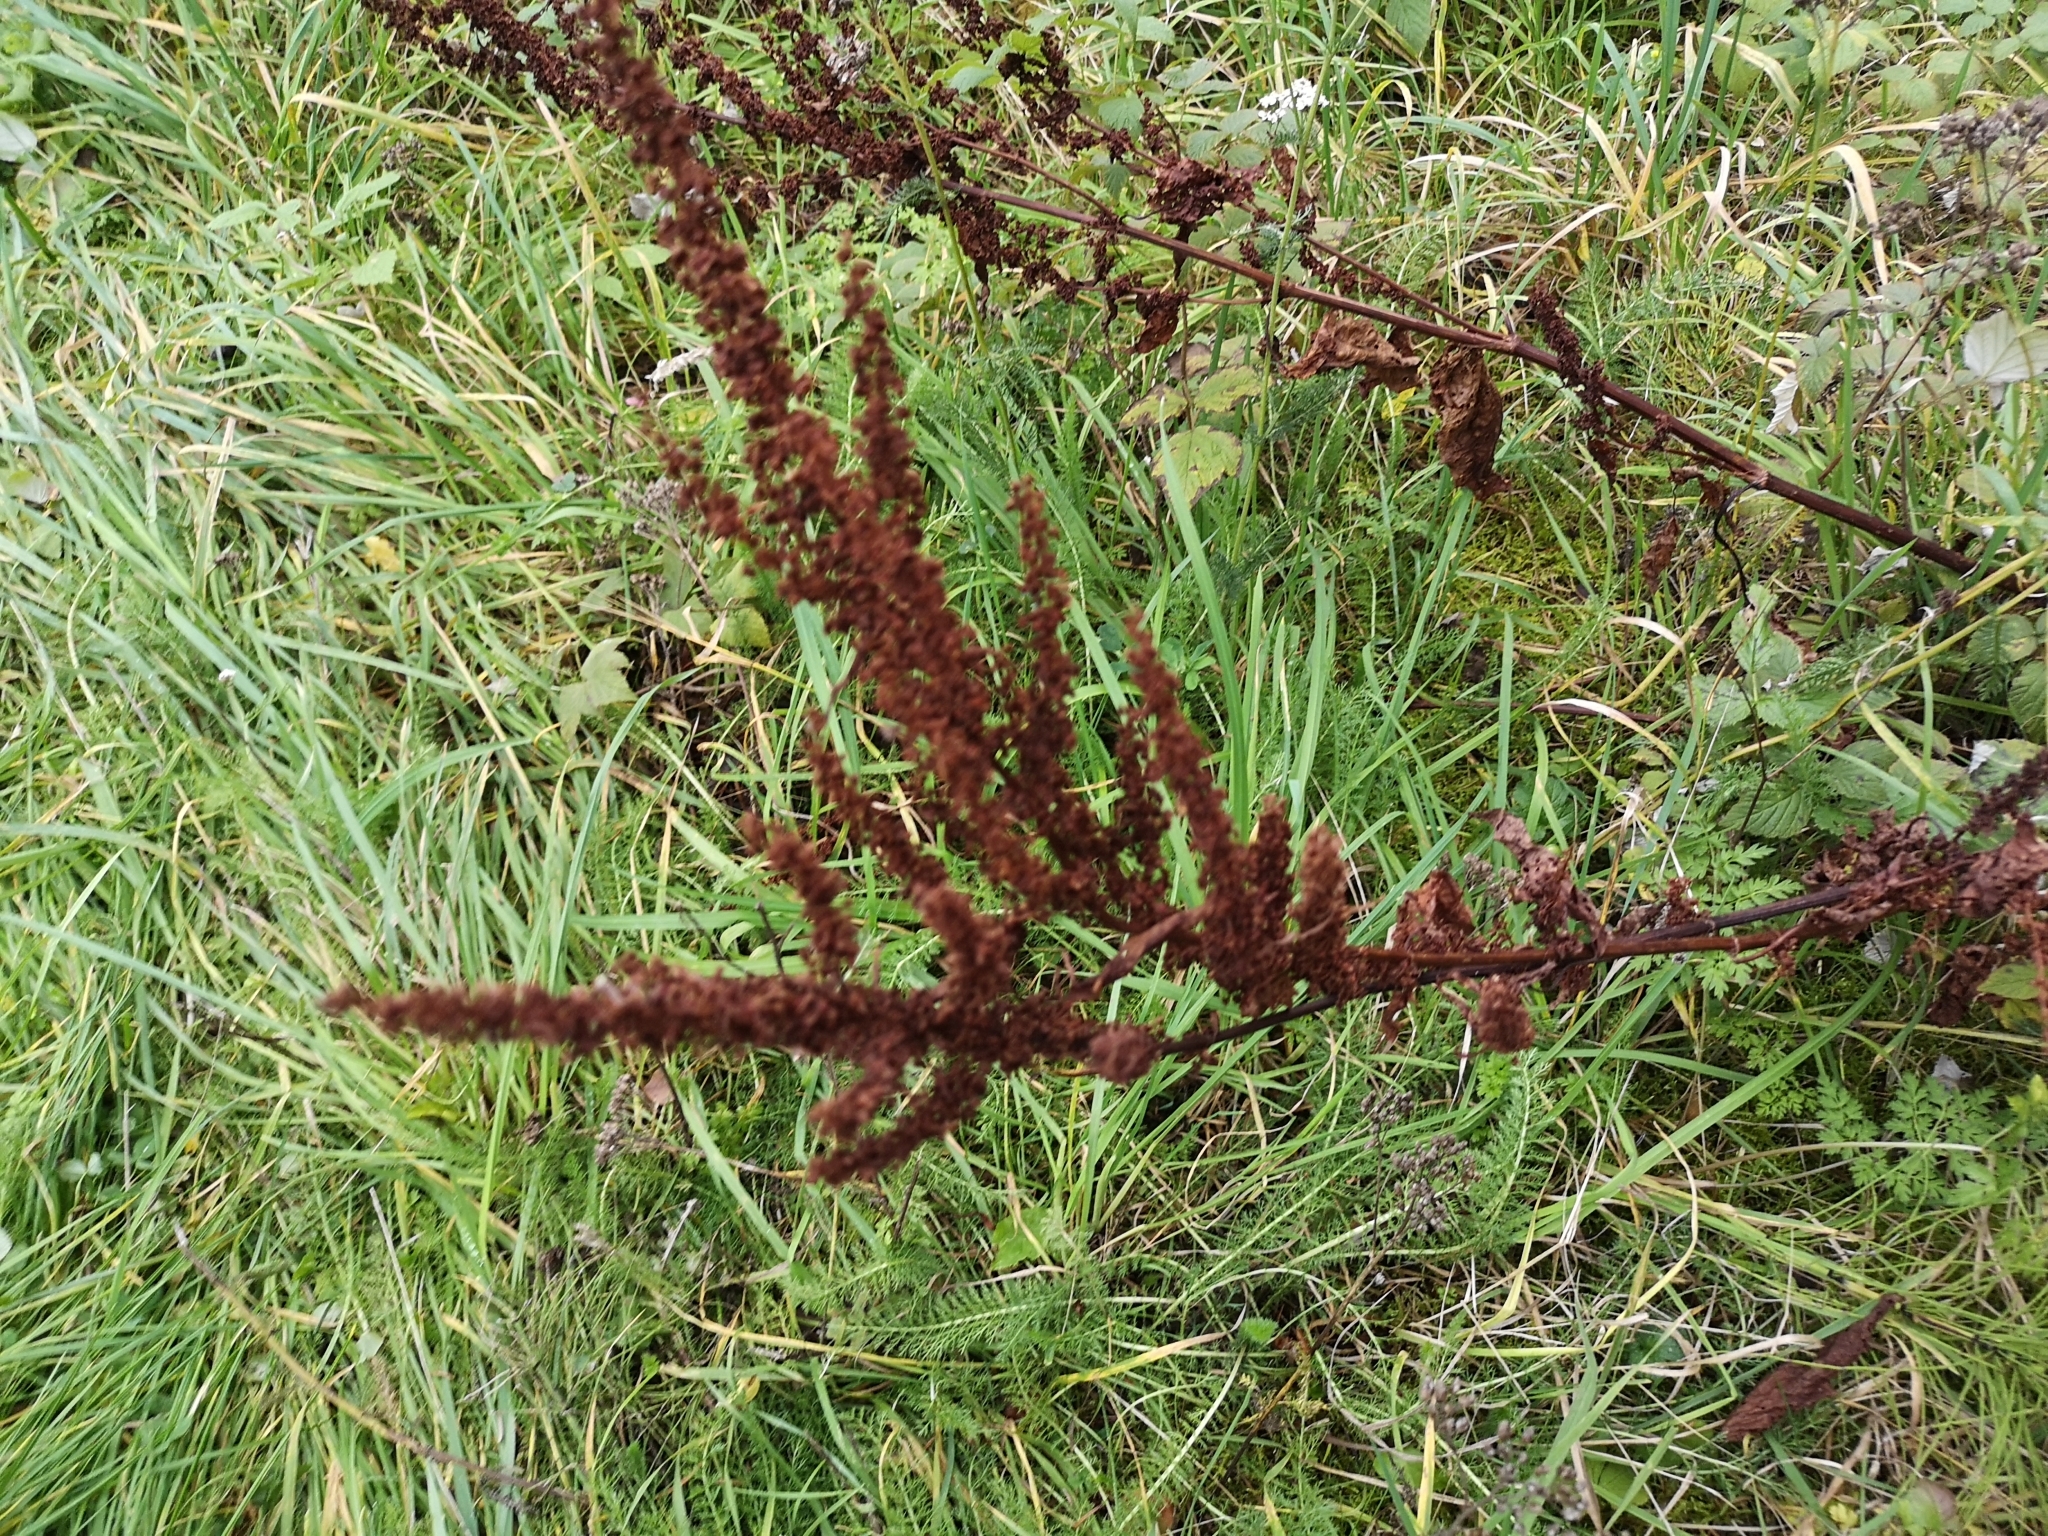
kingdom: Plantae
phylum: Tracheophyta
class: Magnoliopsida
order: Caryophyllales
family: Polygonaceae
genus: Rumex
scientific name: Rumex crispus
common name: Curled dock
